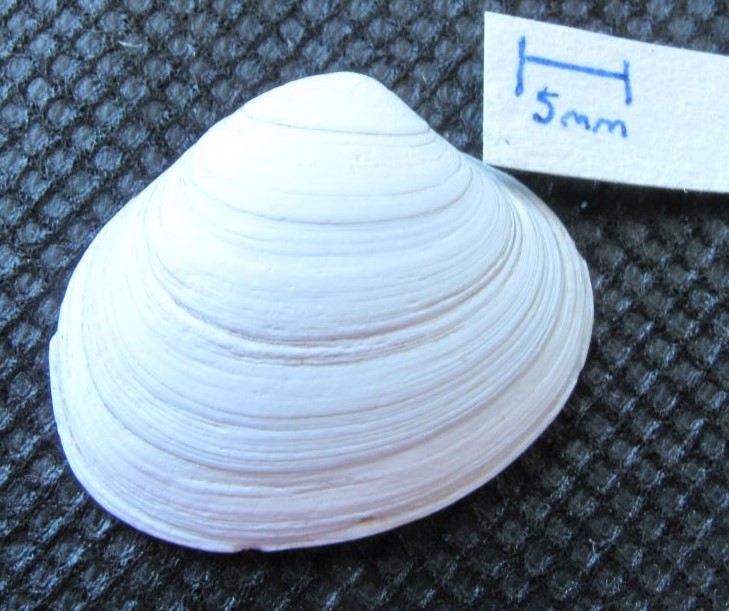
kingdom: Animalia
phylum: Mollusca
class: Bivalvia
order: Venerida
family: Veneridae
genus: Saxidomus
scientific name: Saxidomus gigantea
